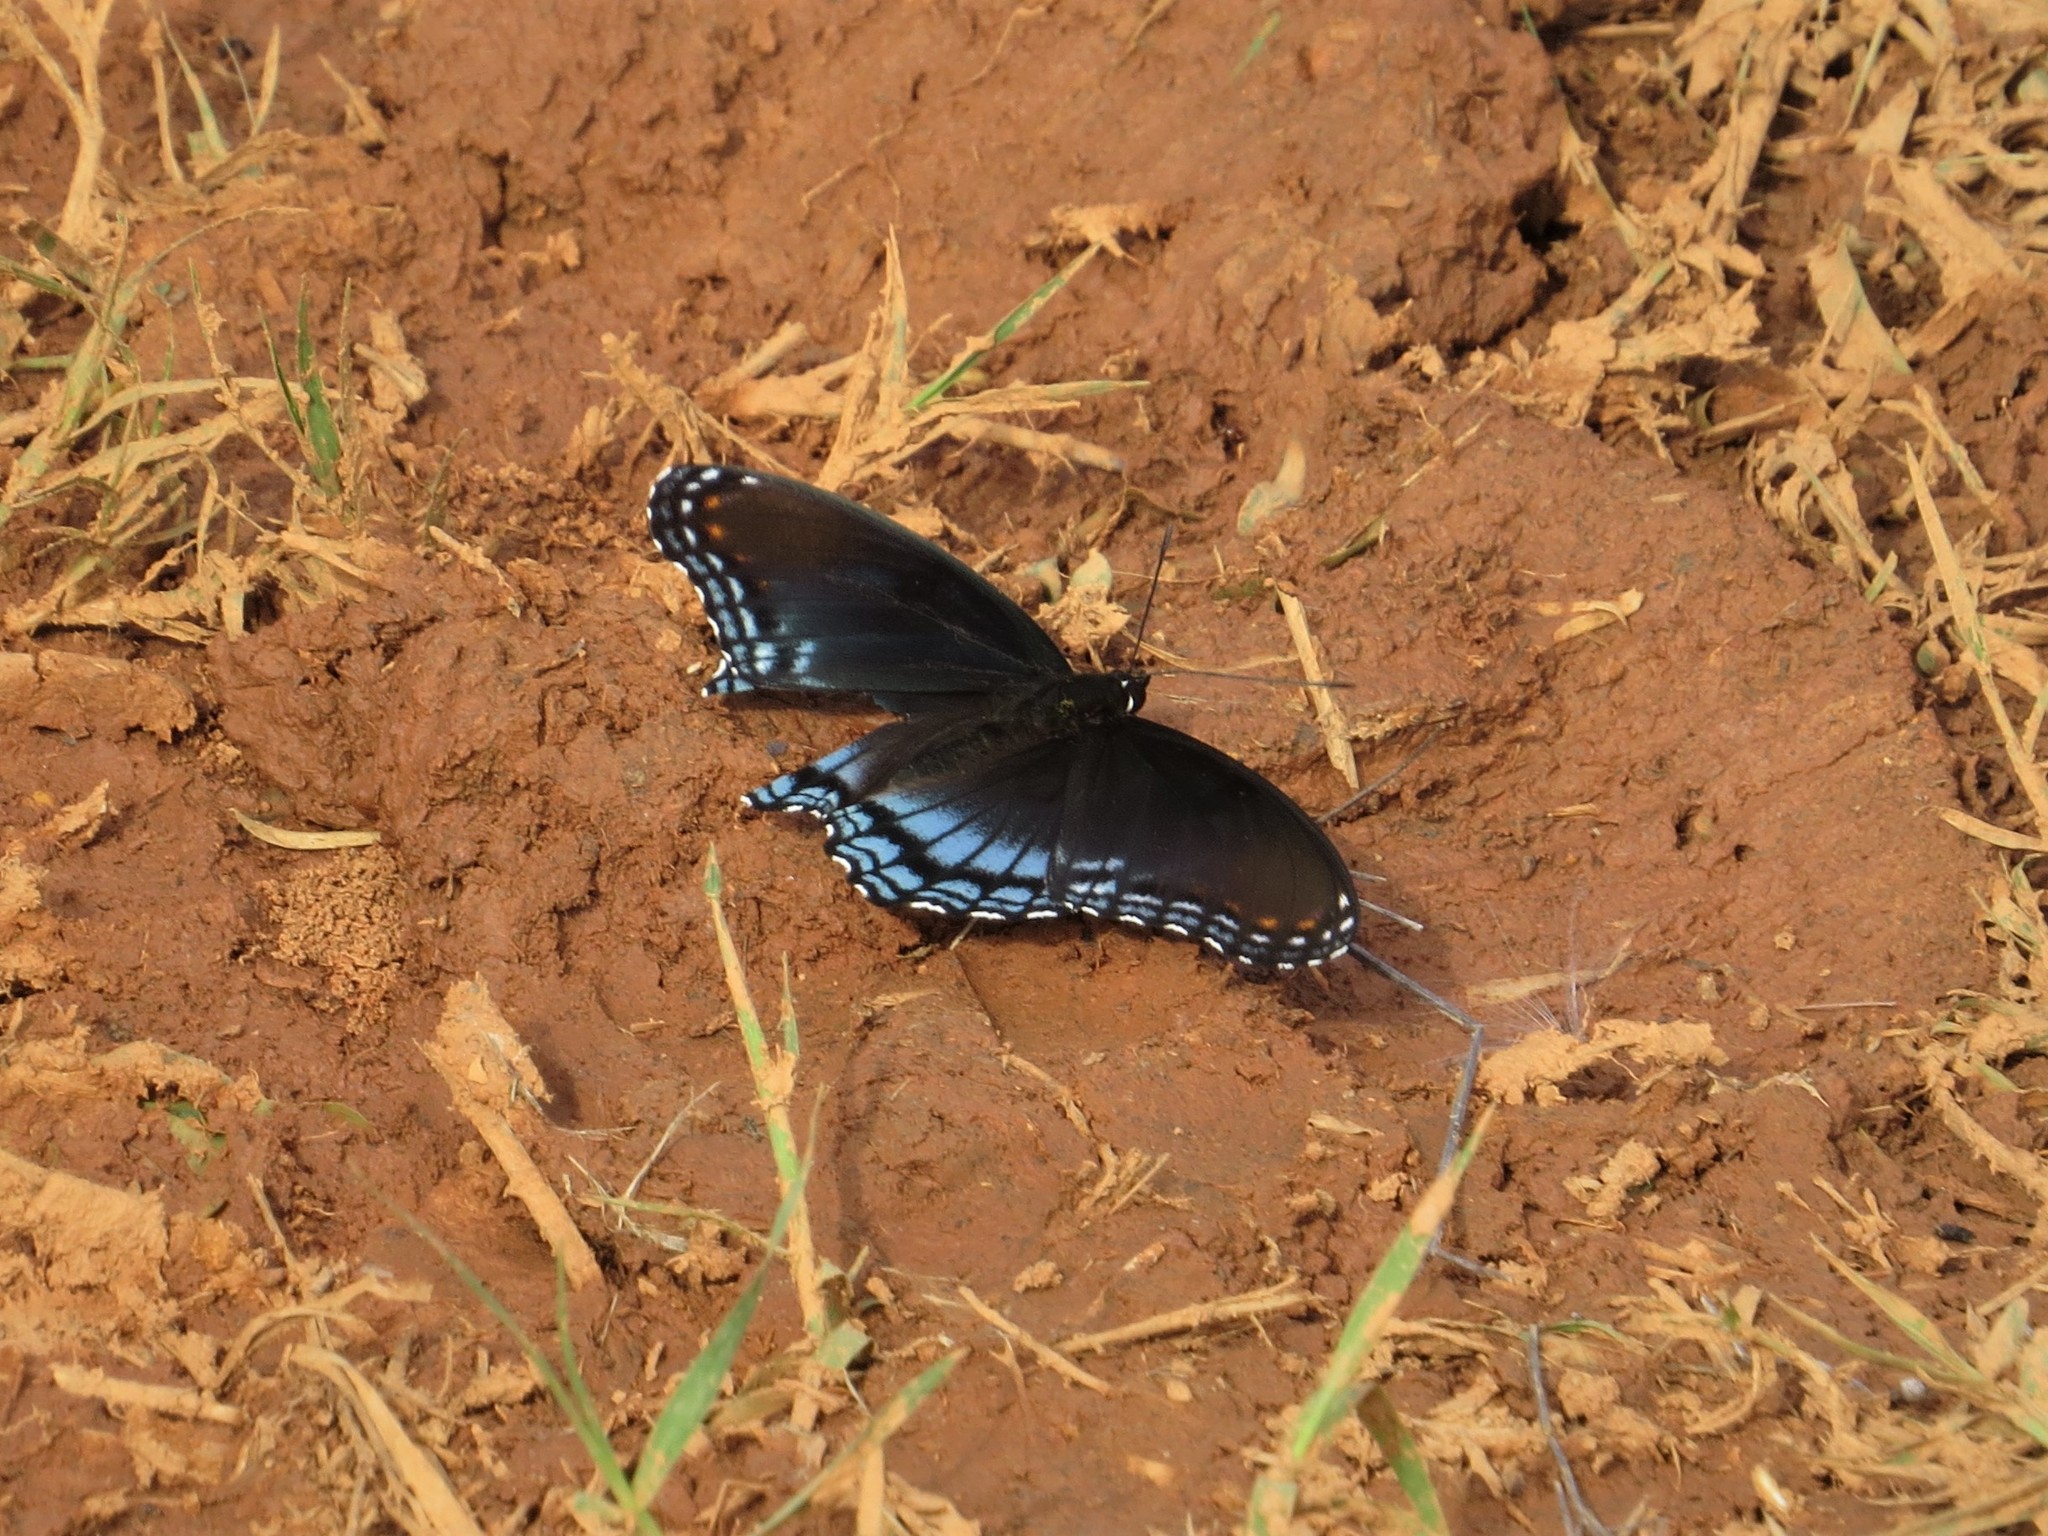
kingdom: Animalia
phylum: Arthropoda
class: Insecta
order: Lepidoptera
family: Nymphalidae
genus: Limenitis
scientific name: Limenitis astyanax
